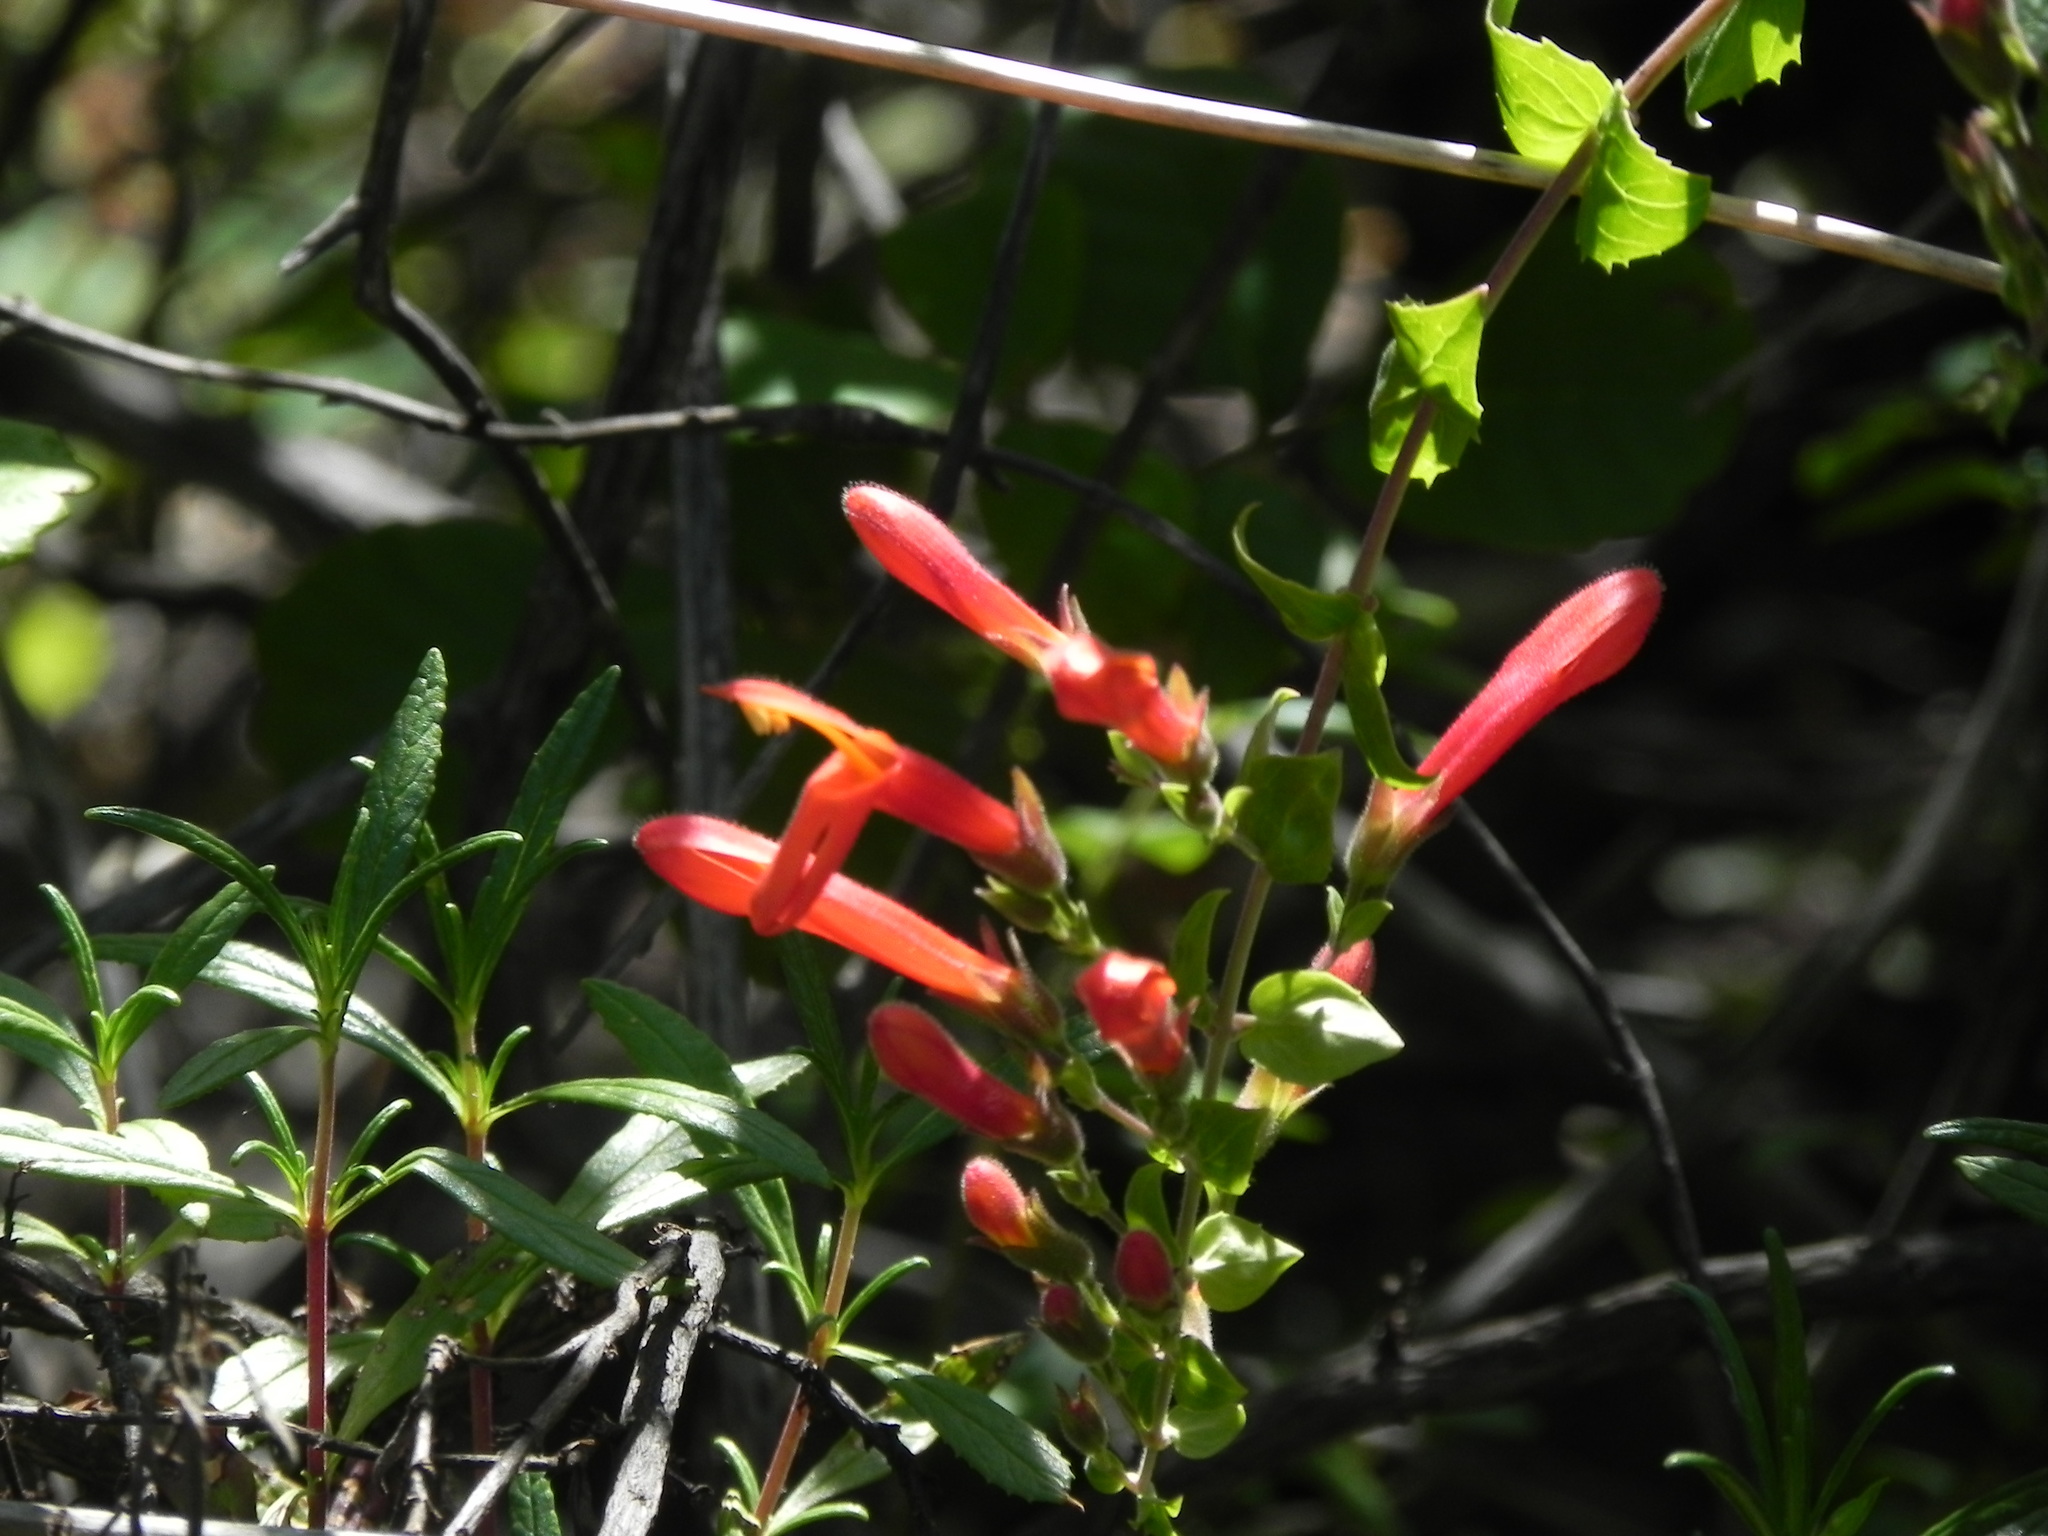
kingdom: Plantae
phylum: Tracheophyta
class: Magnoliopsida
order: Lamiales
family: Plantaginaceae
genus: Keckiella
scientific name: Keckiella cordifolia
